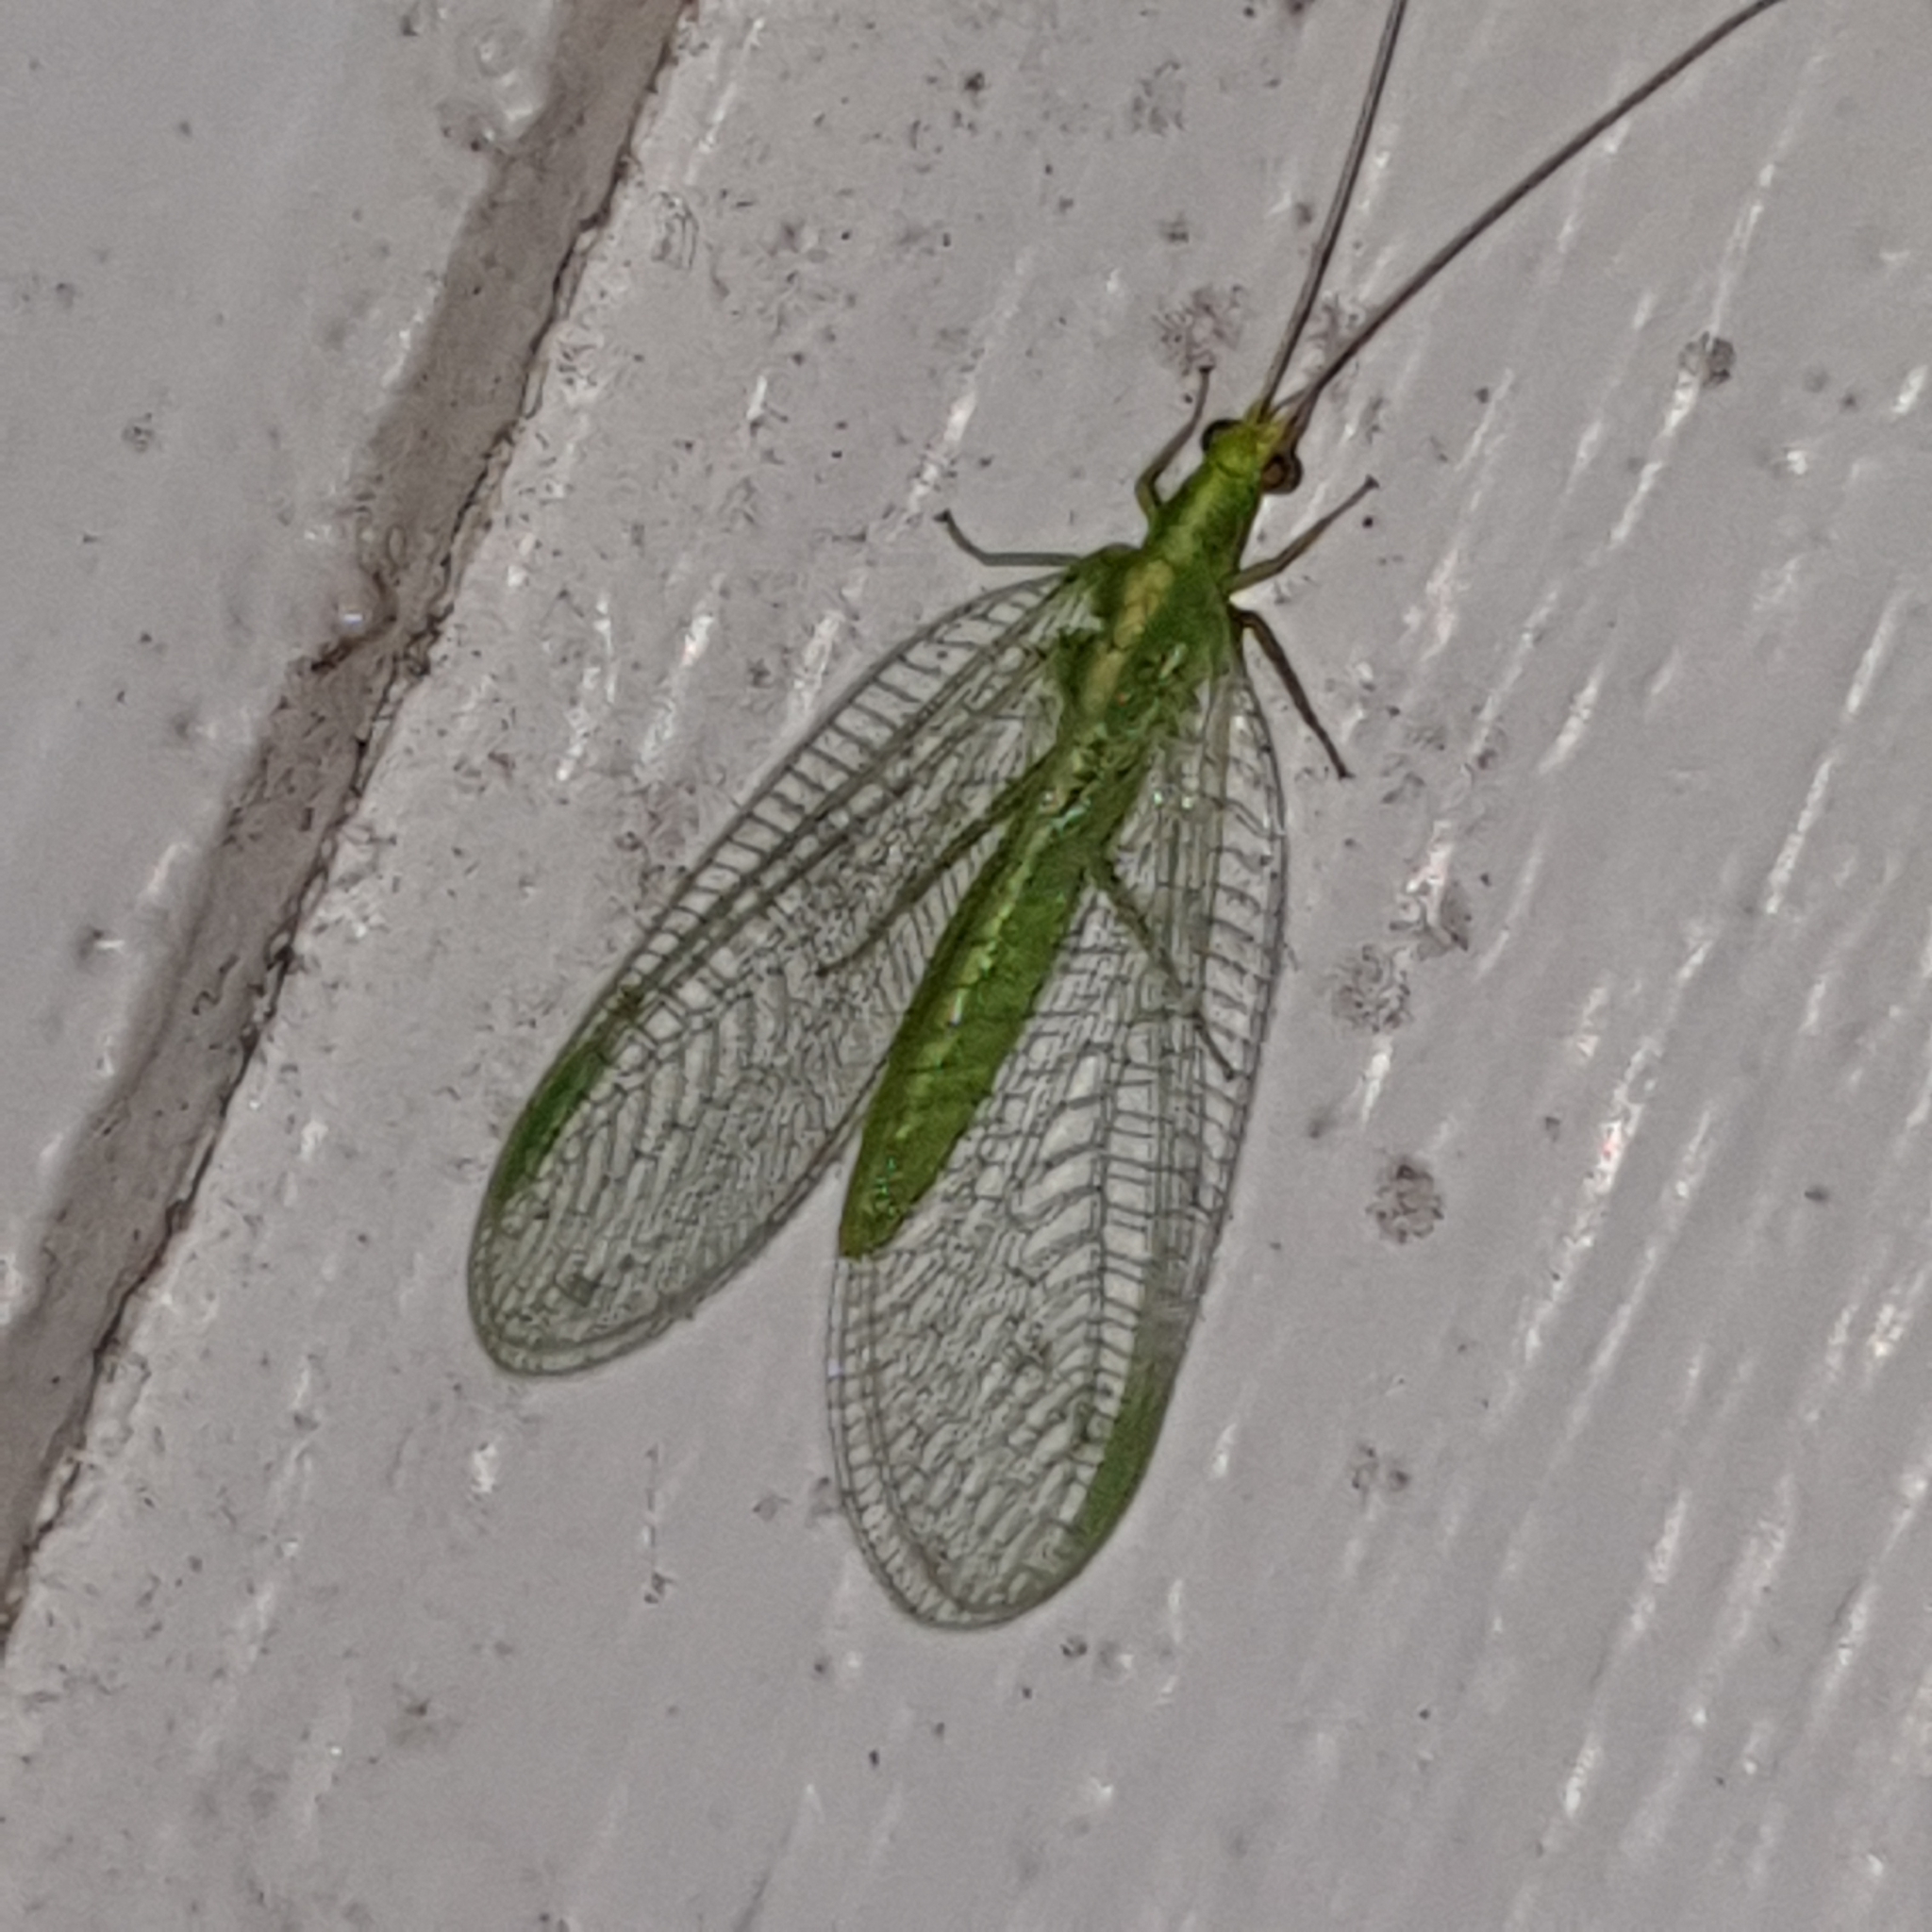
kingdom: Animalia
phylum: Arthropoda
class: Insecta
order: Neuroptera
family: Chrysopidae
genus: Chrysoperla
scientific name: Chrysoperla
